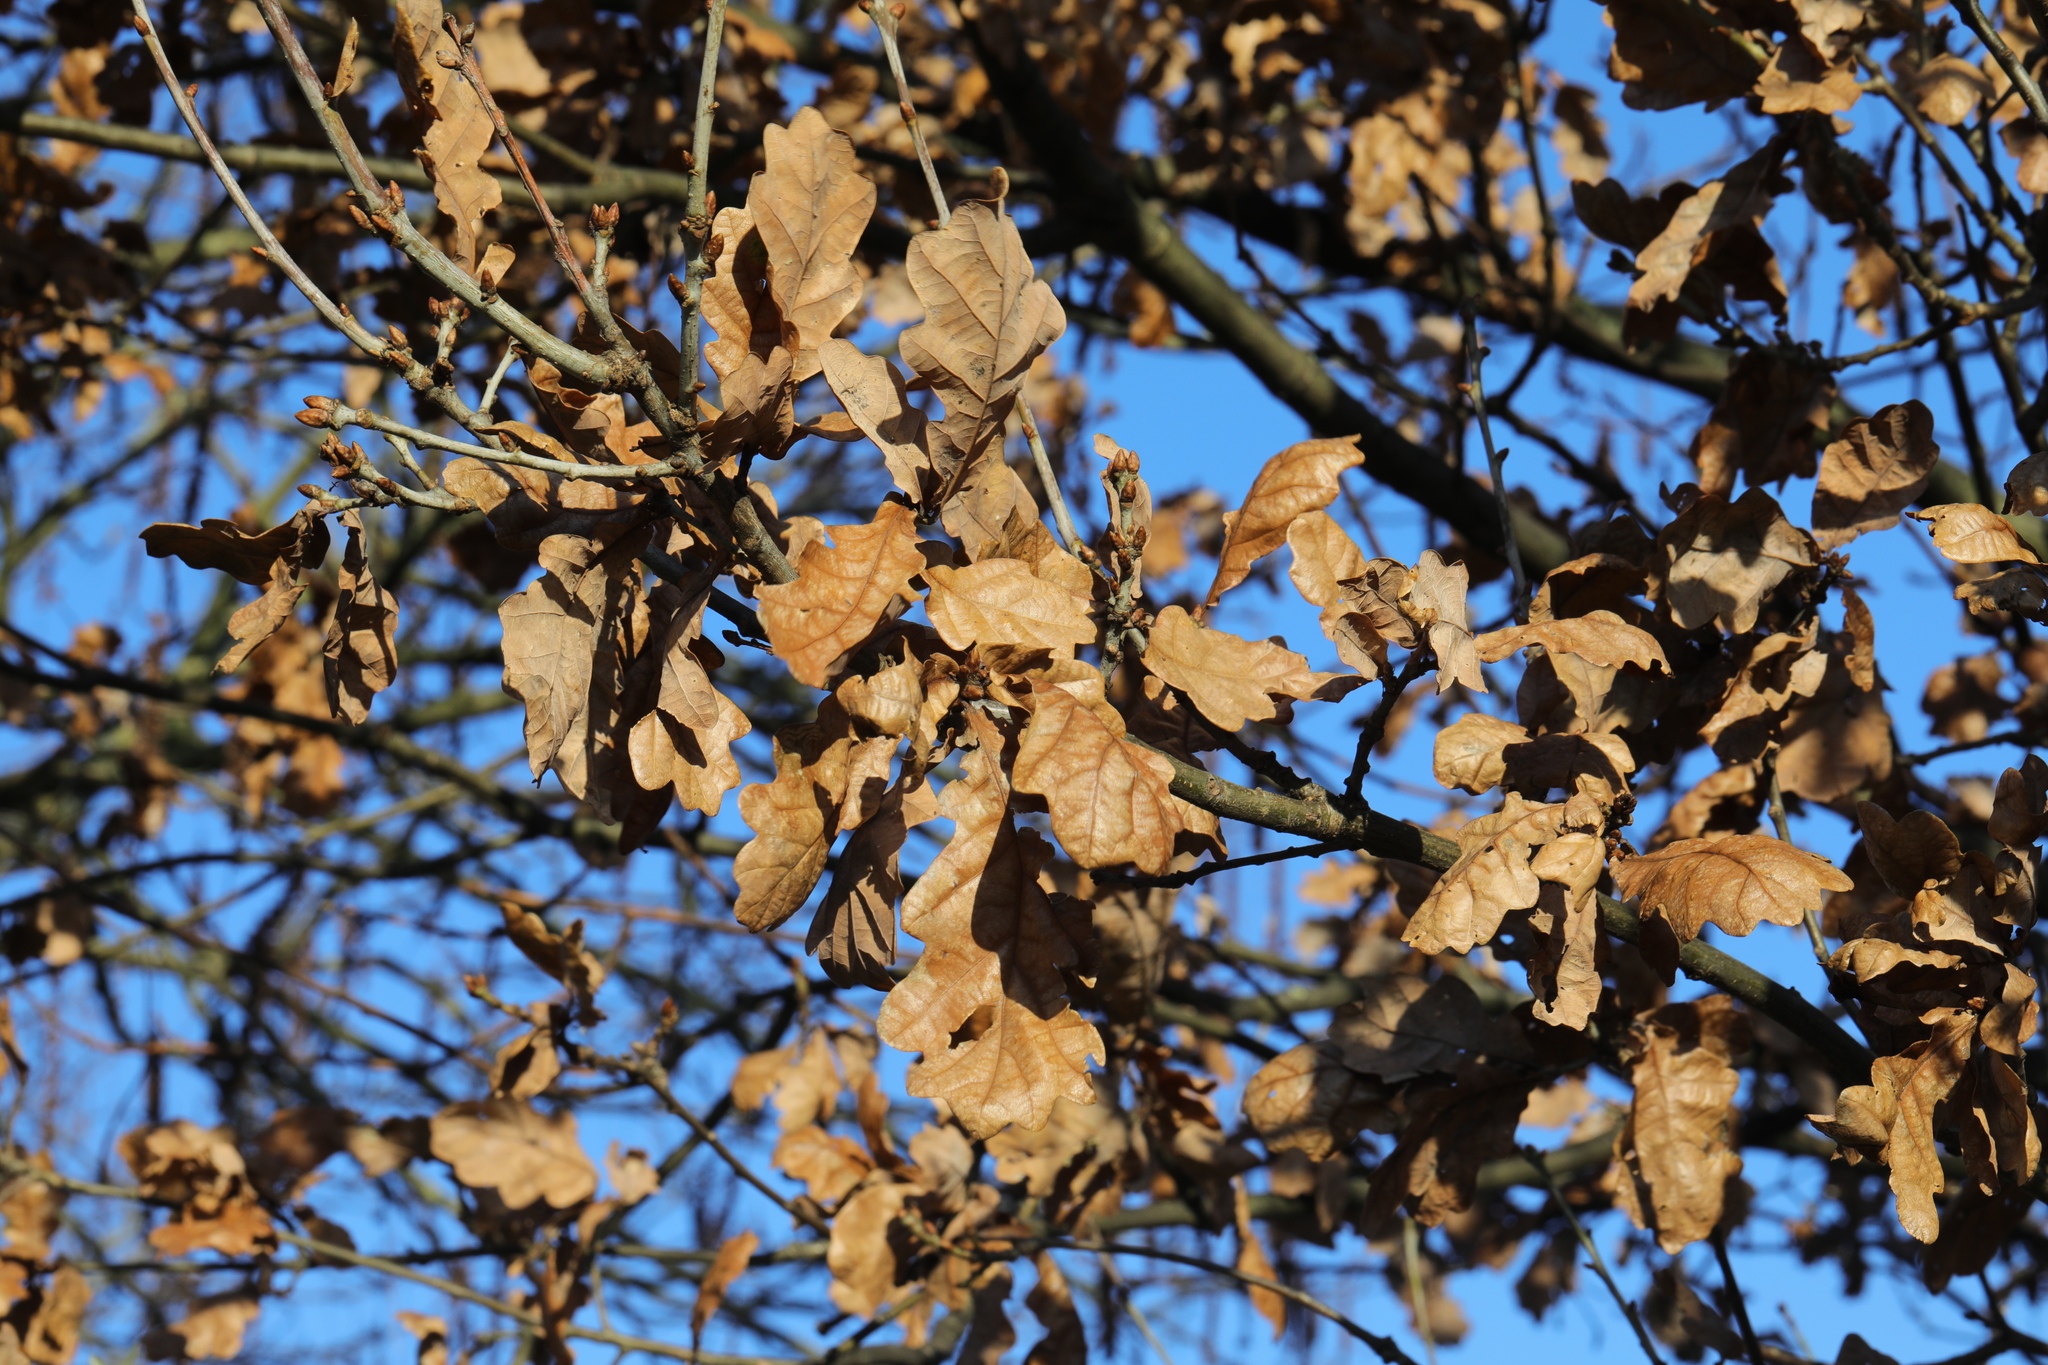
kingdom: Plantae
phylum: Tracheophyta
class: Magnoliopsida
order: Fagales
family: Fagaceae
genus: Quercus
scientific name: Quercus robur
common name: Pedunculate oak
